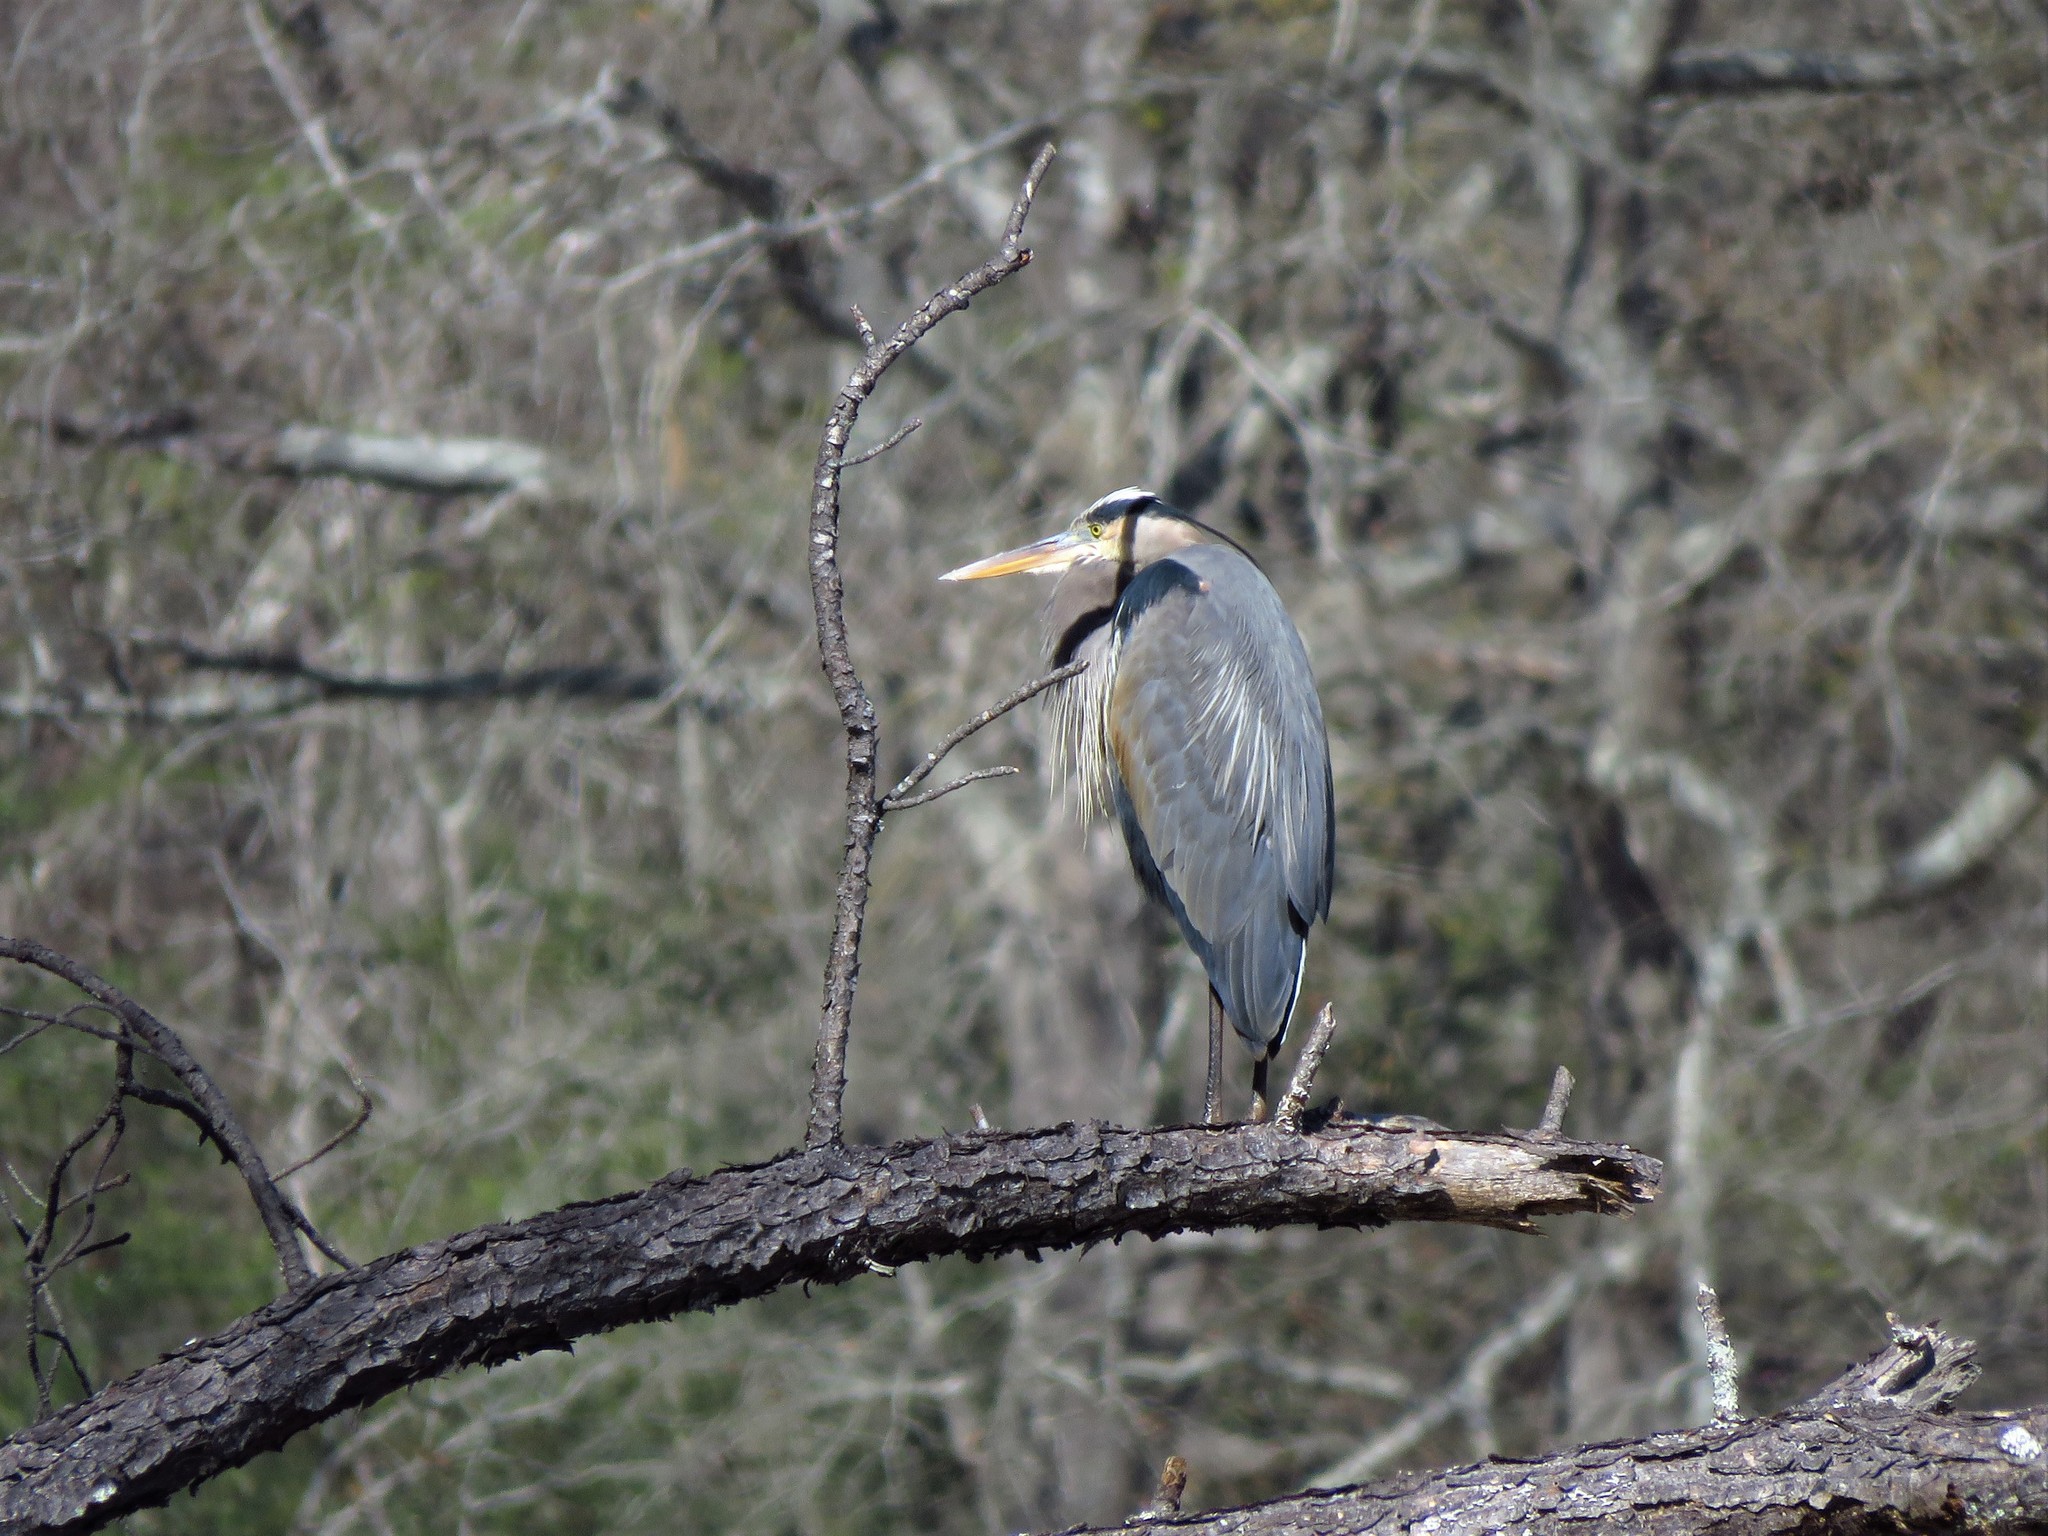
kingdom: Animalia
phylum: Chordata
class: Aves
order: Pelecaniformes
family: Ardeidae
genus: Ardea
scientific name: Ardea herodias
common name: Great blue heron
